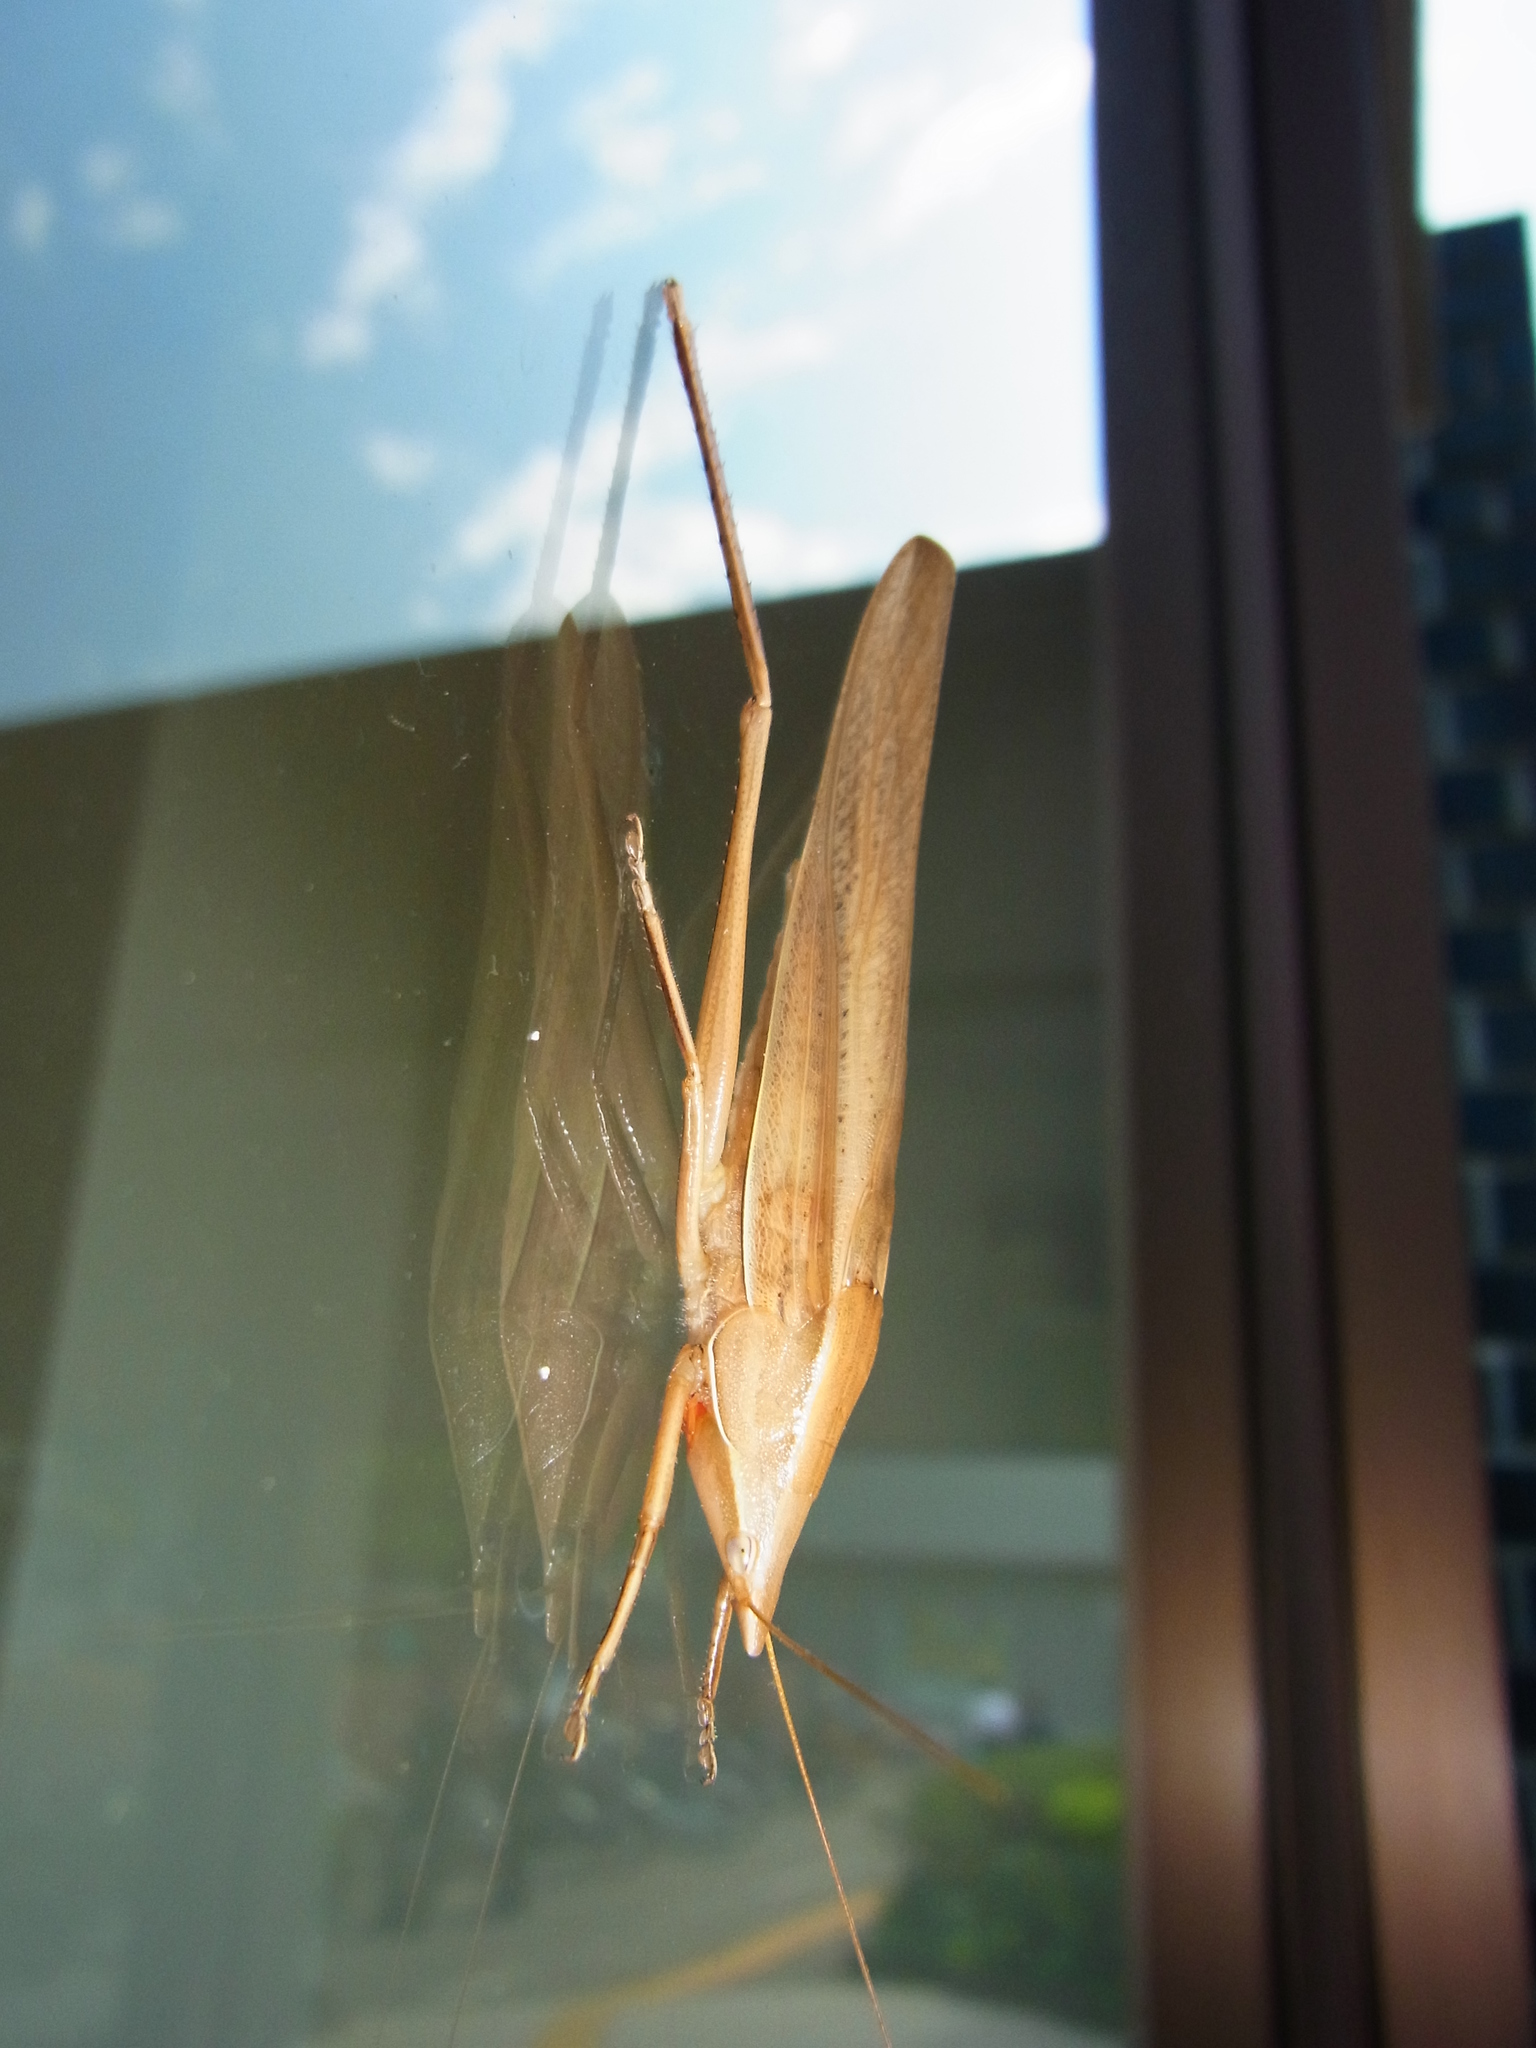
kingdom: Animalia
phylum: Arthropoda
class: Insecta
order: Orthoptera
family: Tettigoniidae
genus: Euconocephalus
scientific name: Euconocephalus varius
